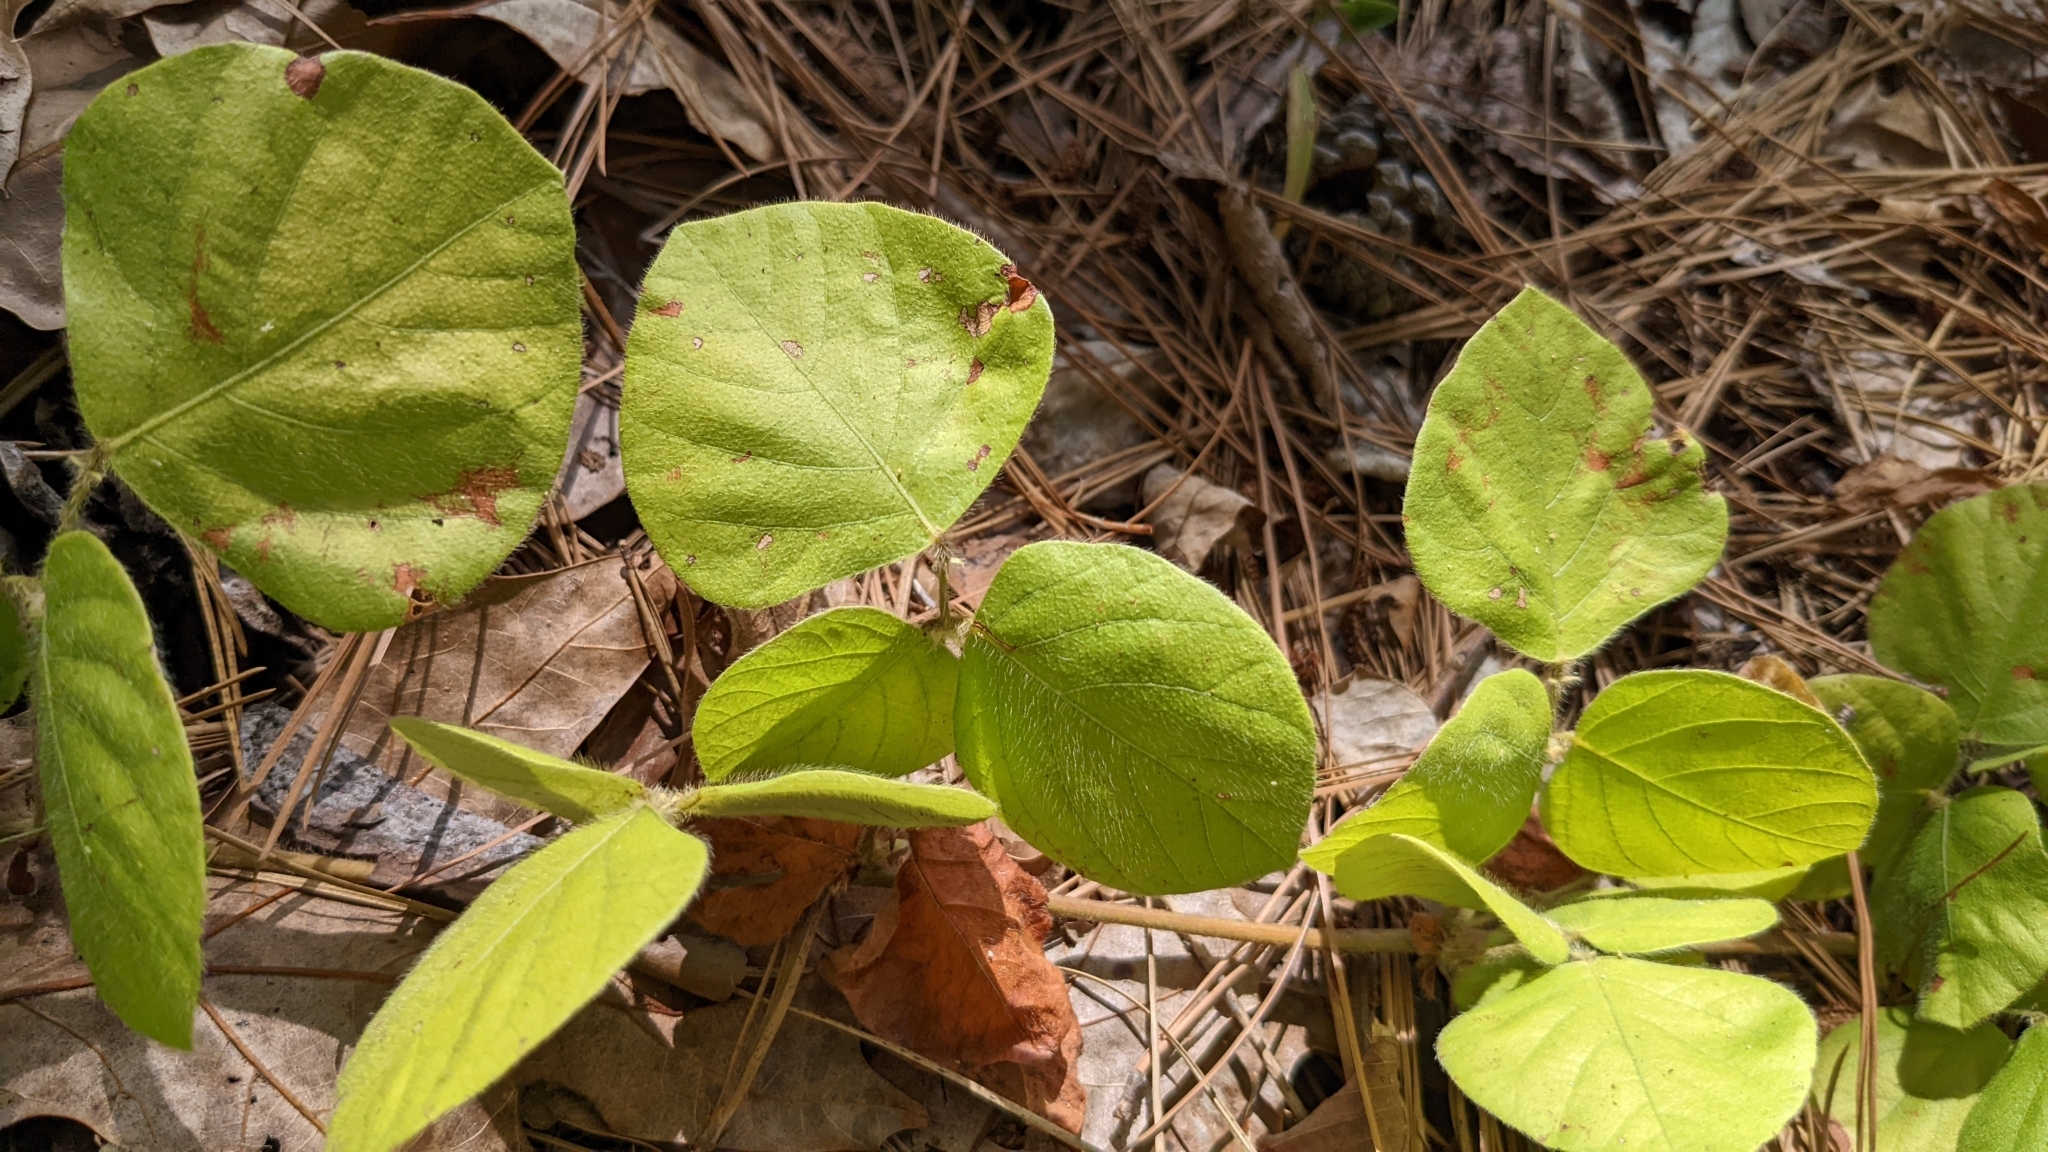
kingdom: Plantae
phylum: Tracheophyta
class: Magnoliopsida
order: Fabales
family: Fabaceae
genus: Desmodium
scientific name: Desmodium rotundifolium
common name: Dollarleaf
